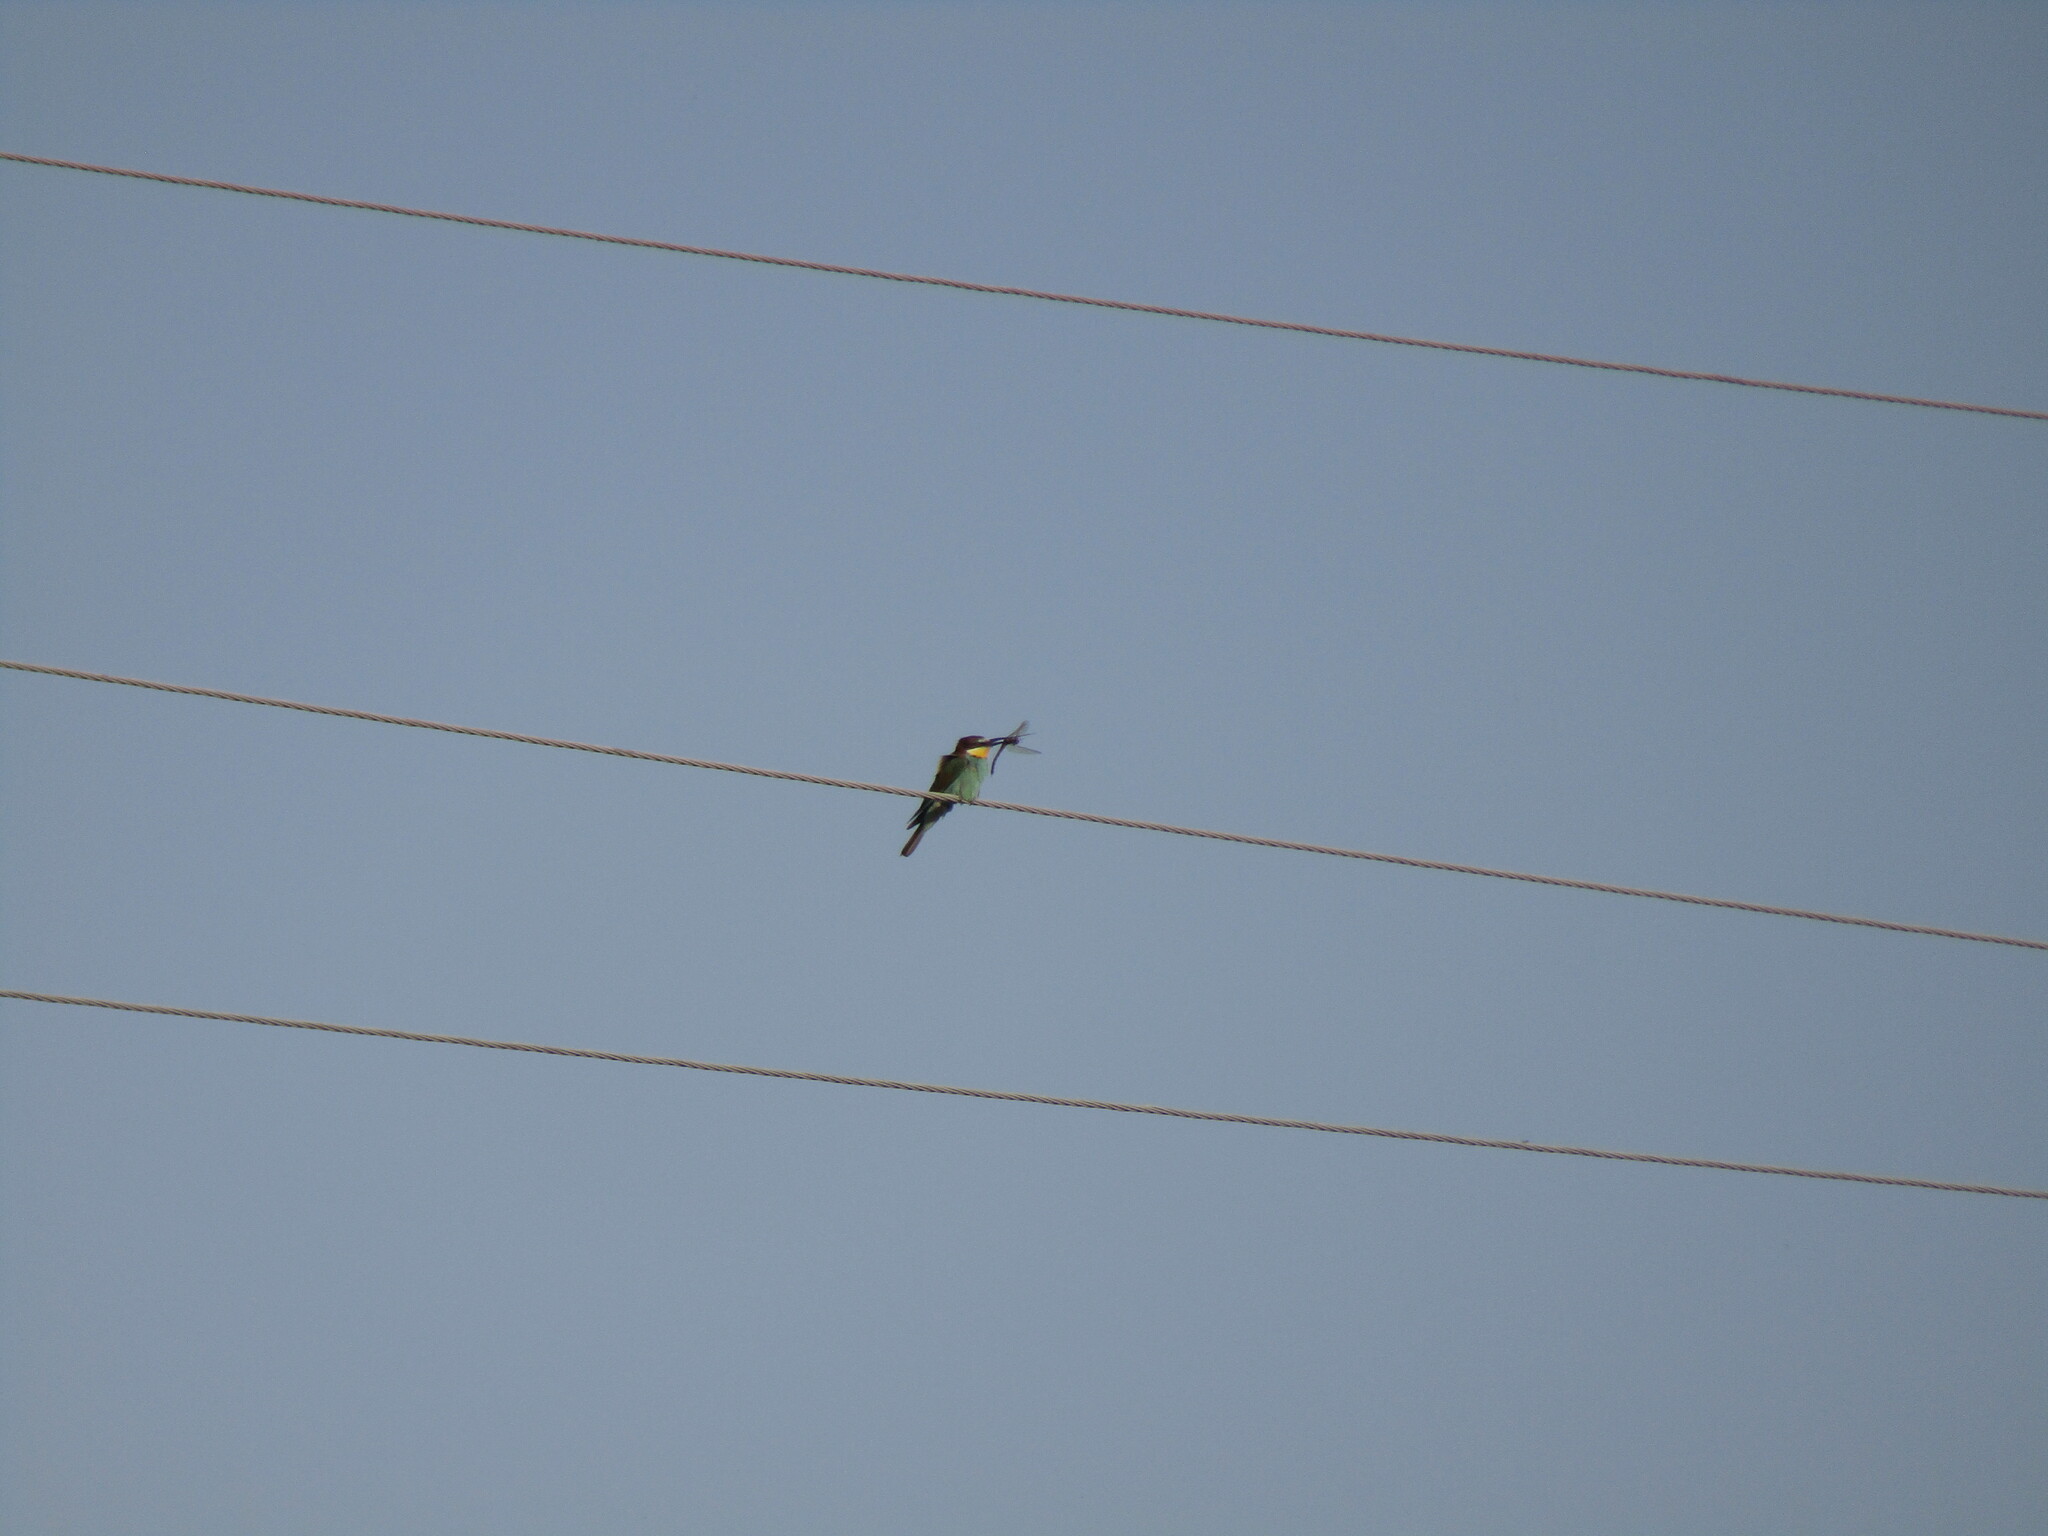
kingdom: Animalia
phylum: Chordata
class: Aves
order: Coraciiformes
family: Meropidae
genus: Merops
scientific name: Merops apiaster
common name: European bee-eater
